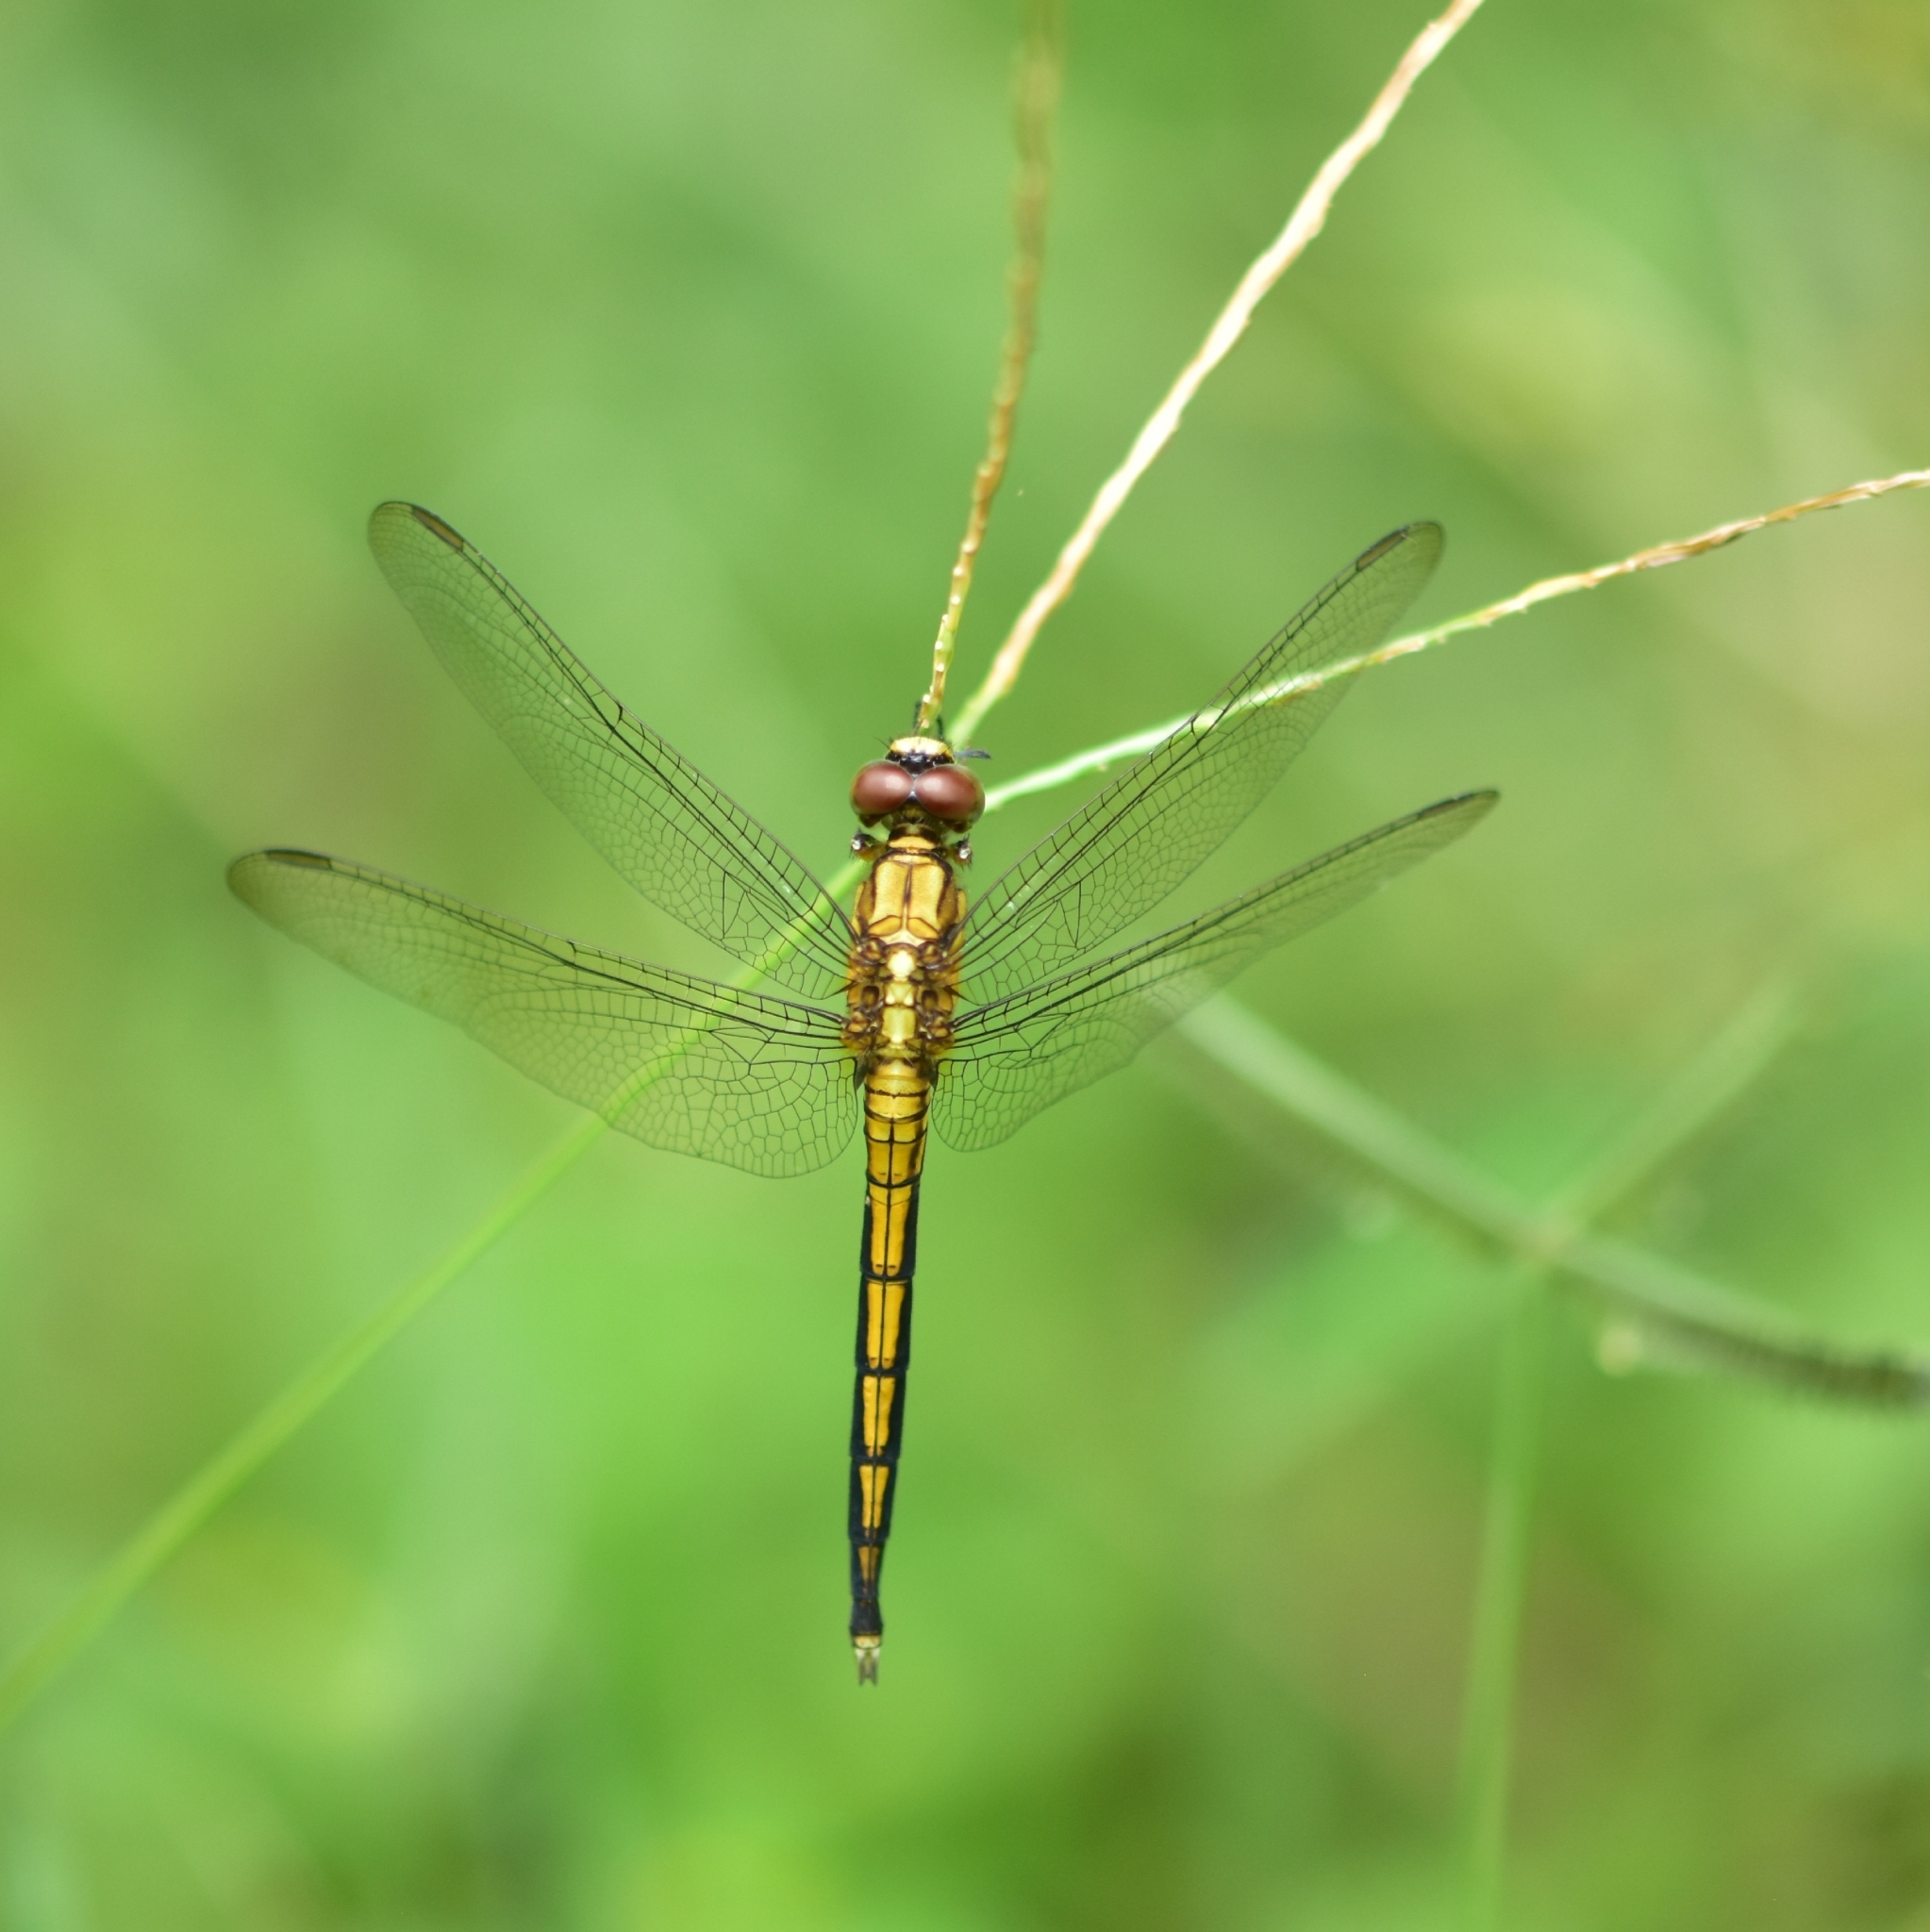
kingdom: Animalia
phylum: Arthropoda
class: Insecta
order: Odonata
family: Libellulidae
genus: Orthetrum
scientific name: Orthetrum luzonicum
